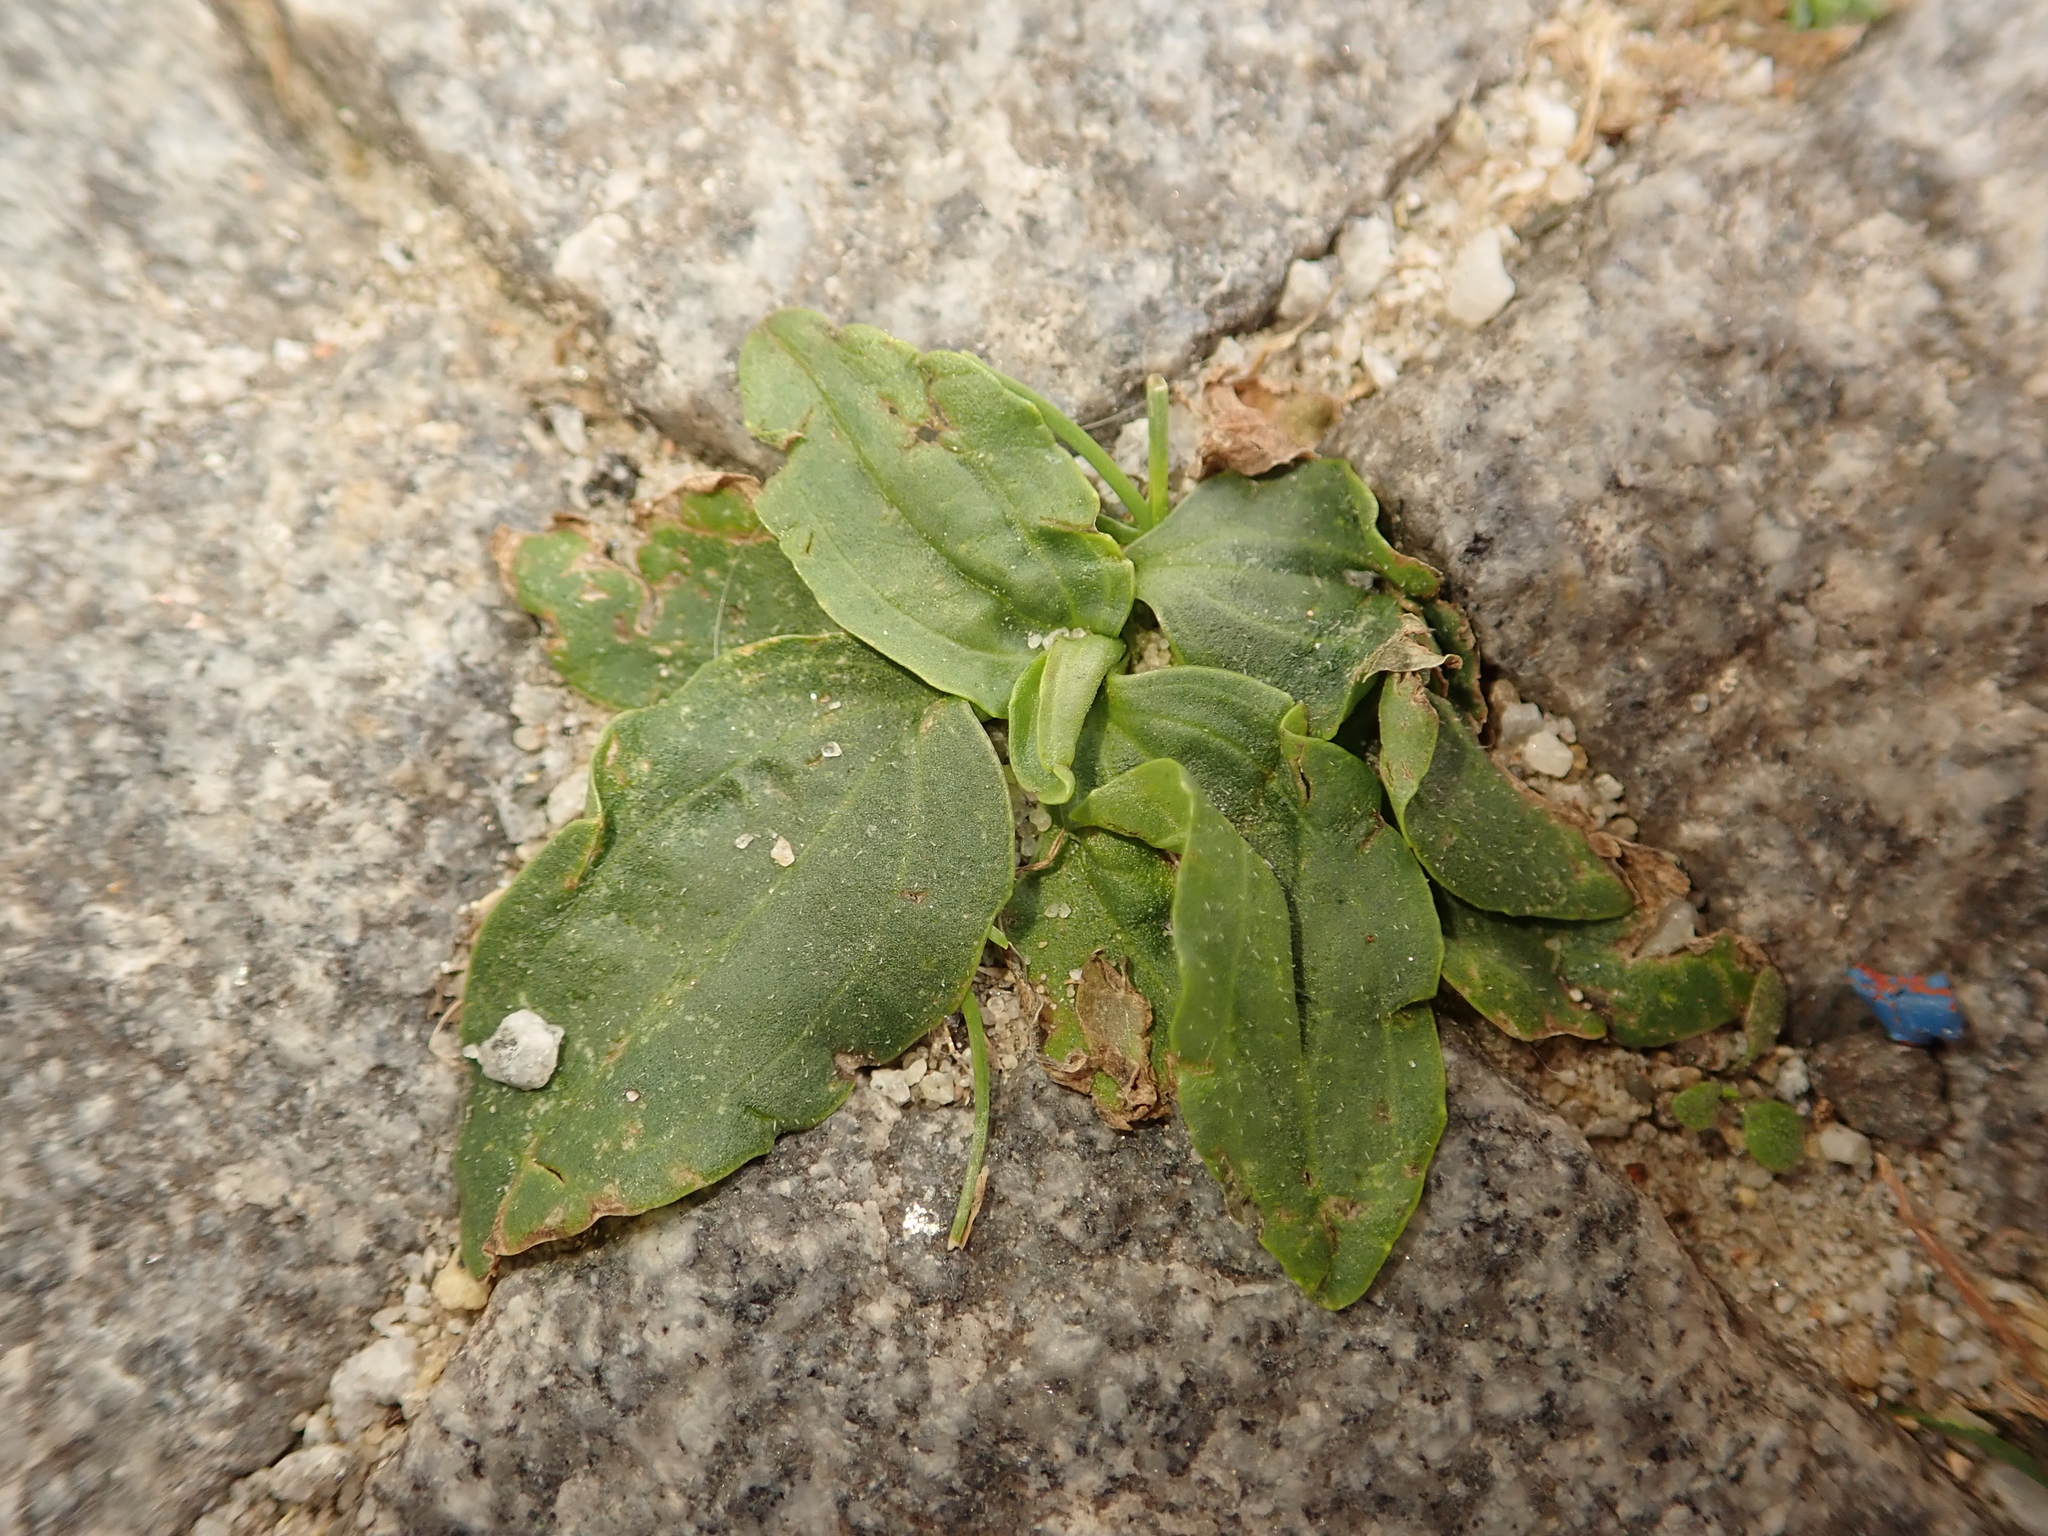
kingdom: Plantae
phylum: Tracheophyta
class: Magnoliopsida
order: Lamiales
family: Plantaginaceae
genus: Plantago
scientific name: Plantago major
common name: Common plantain
